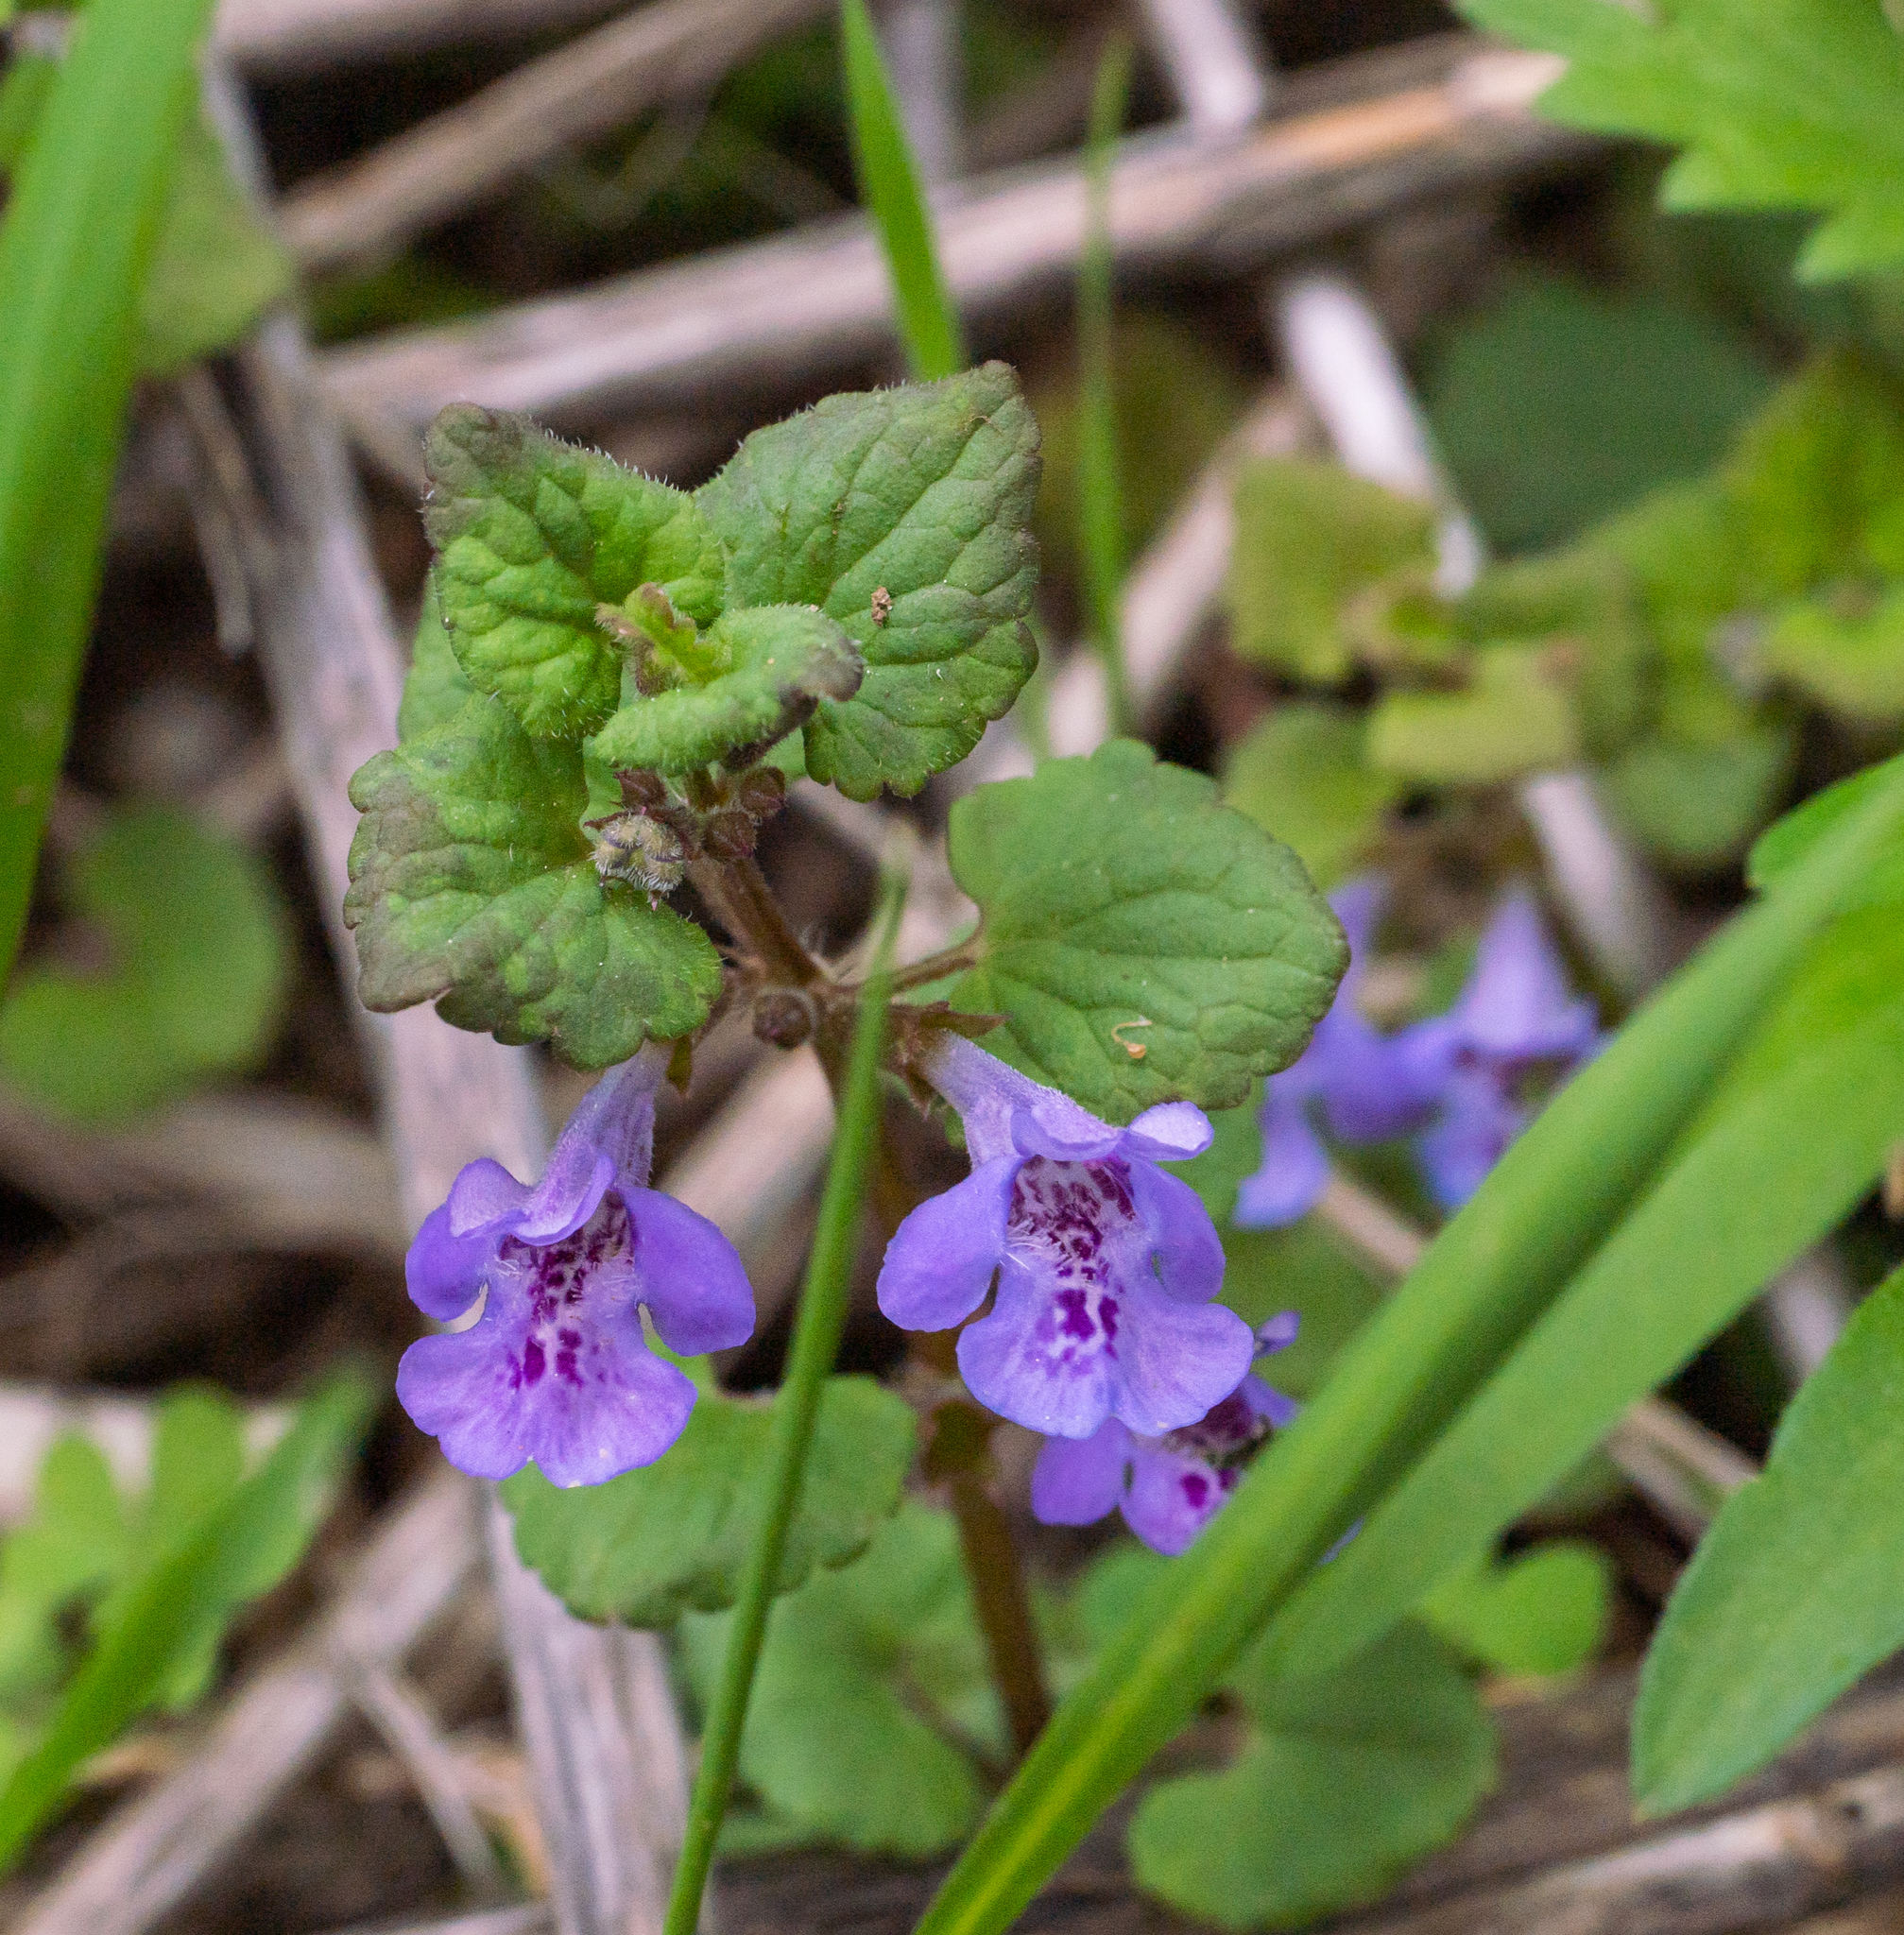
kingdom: Plantae
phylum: Tracheophyta
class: Magnoliopsida
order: Lamiales
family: Lamiaceae
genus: Glechoma
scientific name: Glechoma hederacea
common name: Ground ivy
